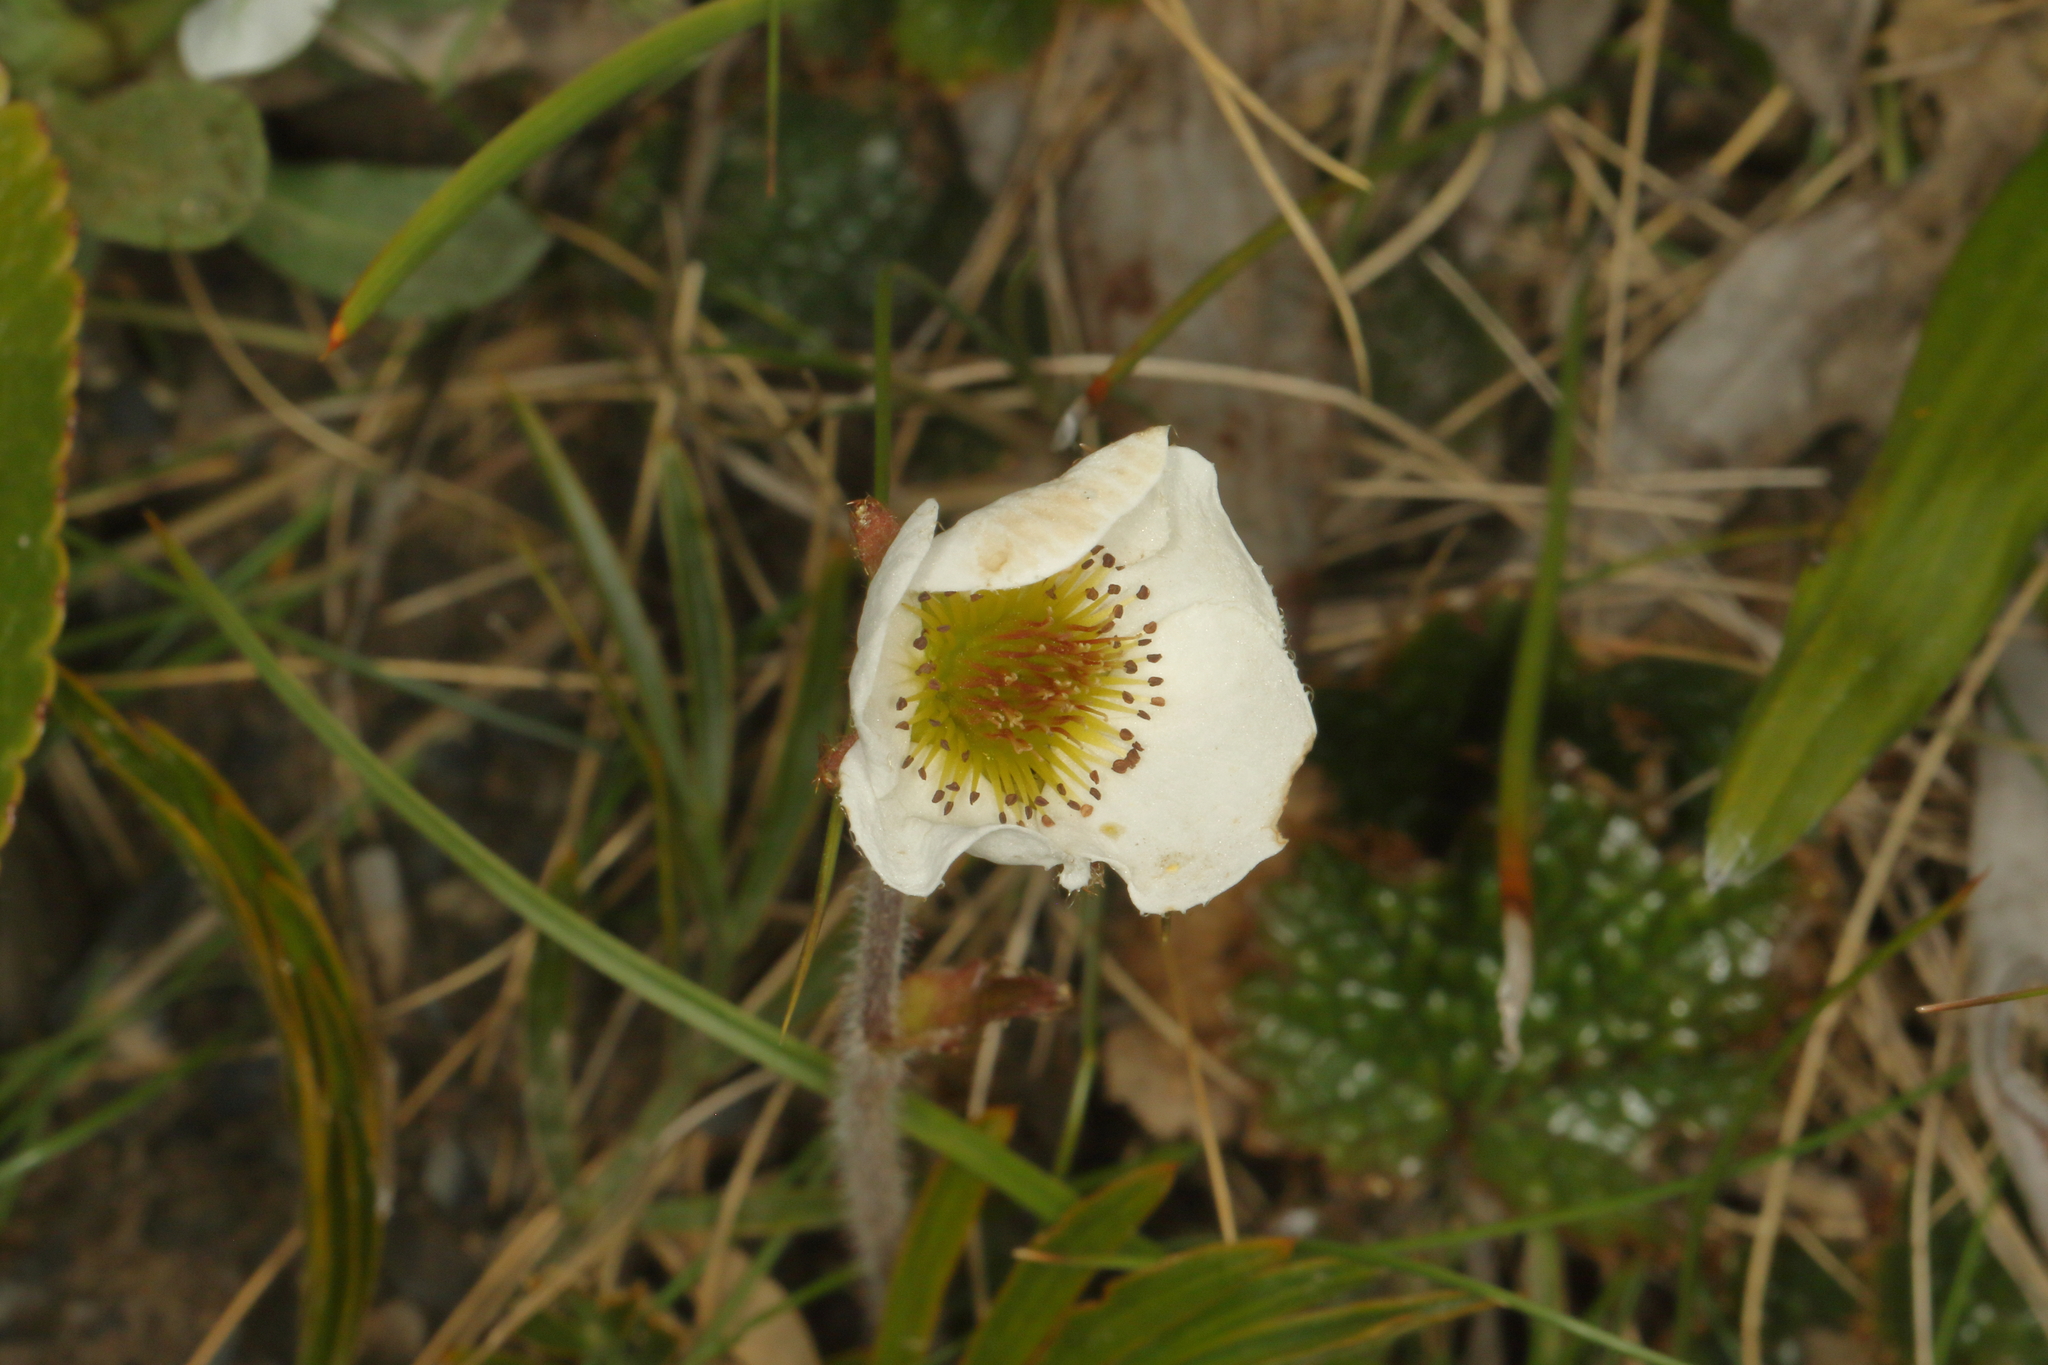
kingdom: Plantae
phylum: Tracheophyta
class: Magnoliopsida
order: Rosales
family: Rosaceae
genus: Geum
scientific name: Geum uniflorum
